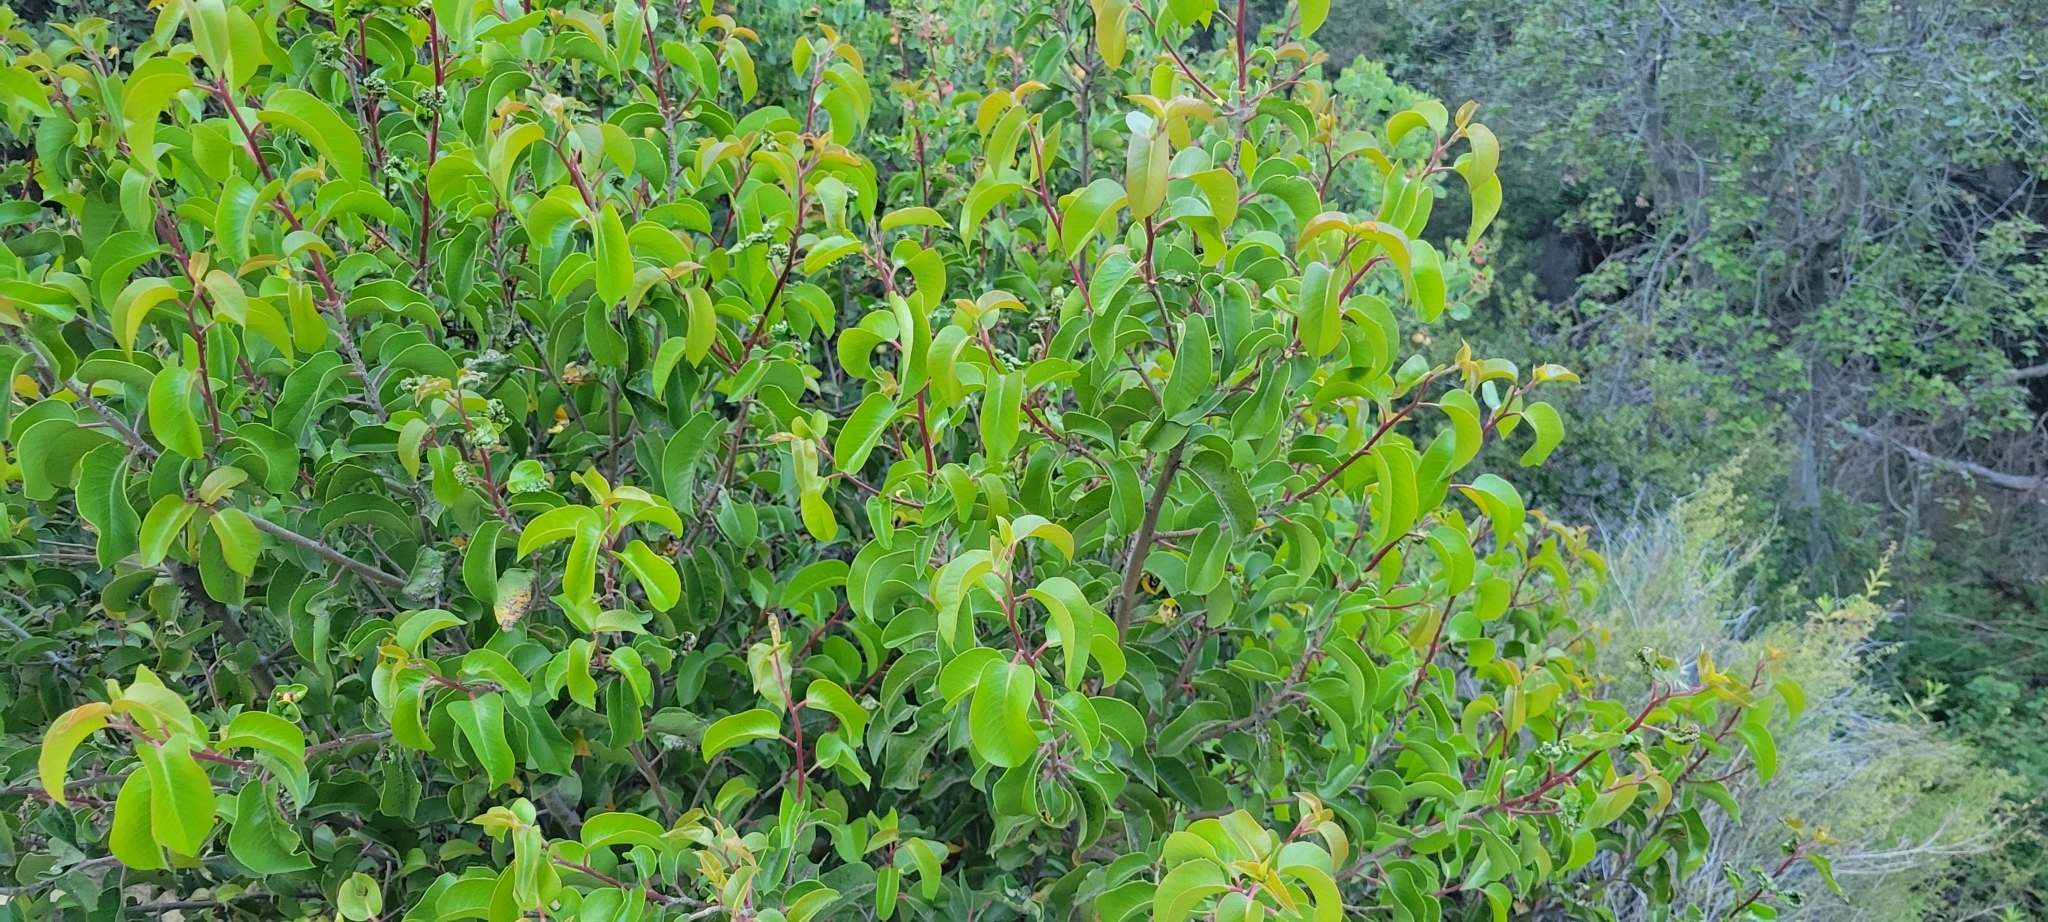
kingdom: Plantae
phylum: Tracheophyta
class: Magnoliopsida
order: Sapindales
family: Anacardiaceae
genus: Rhus
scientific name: Rhus ovata
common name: Sugar sumac
